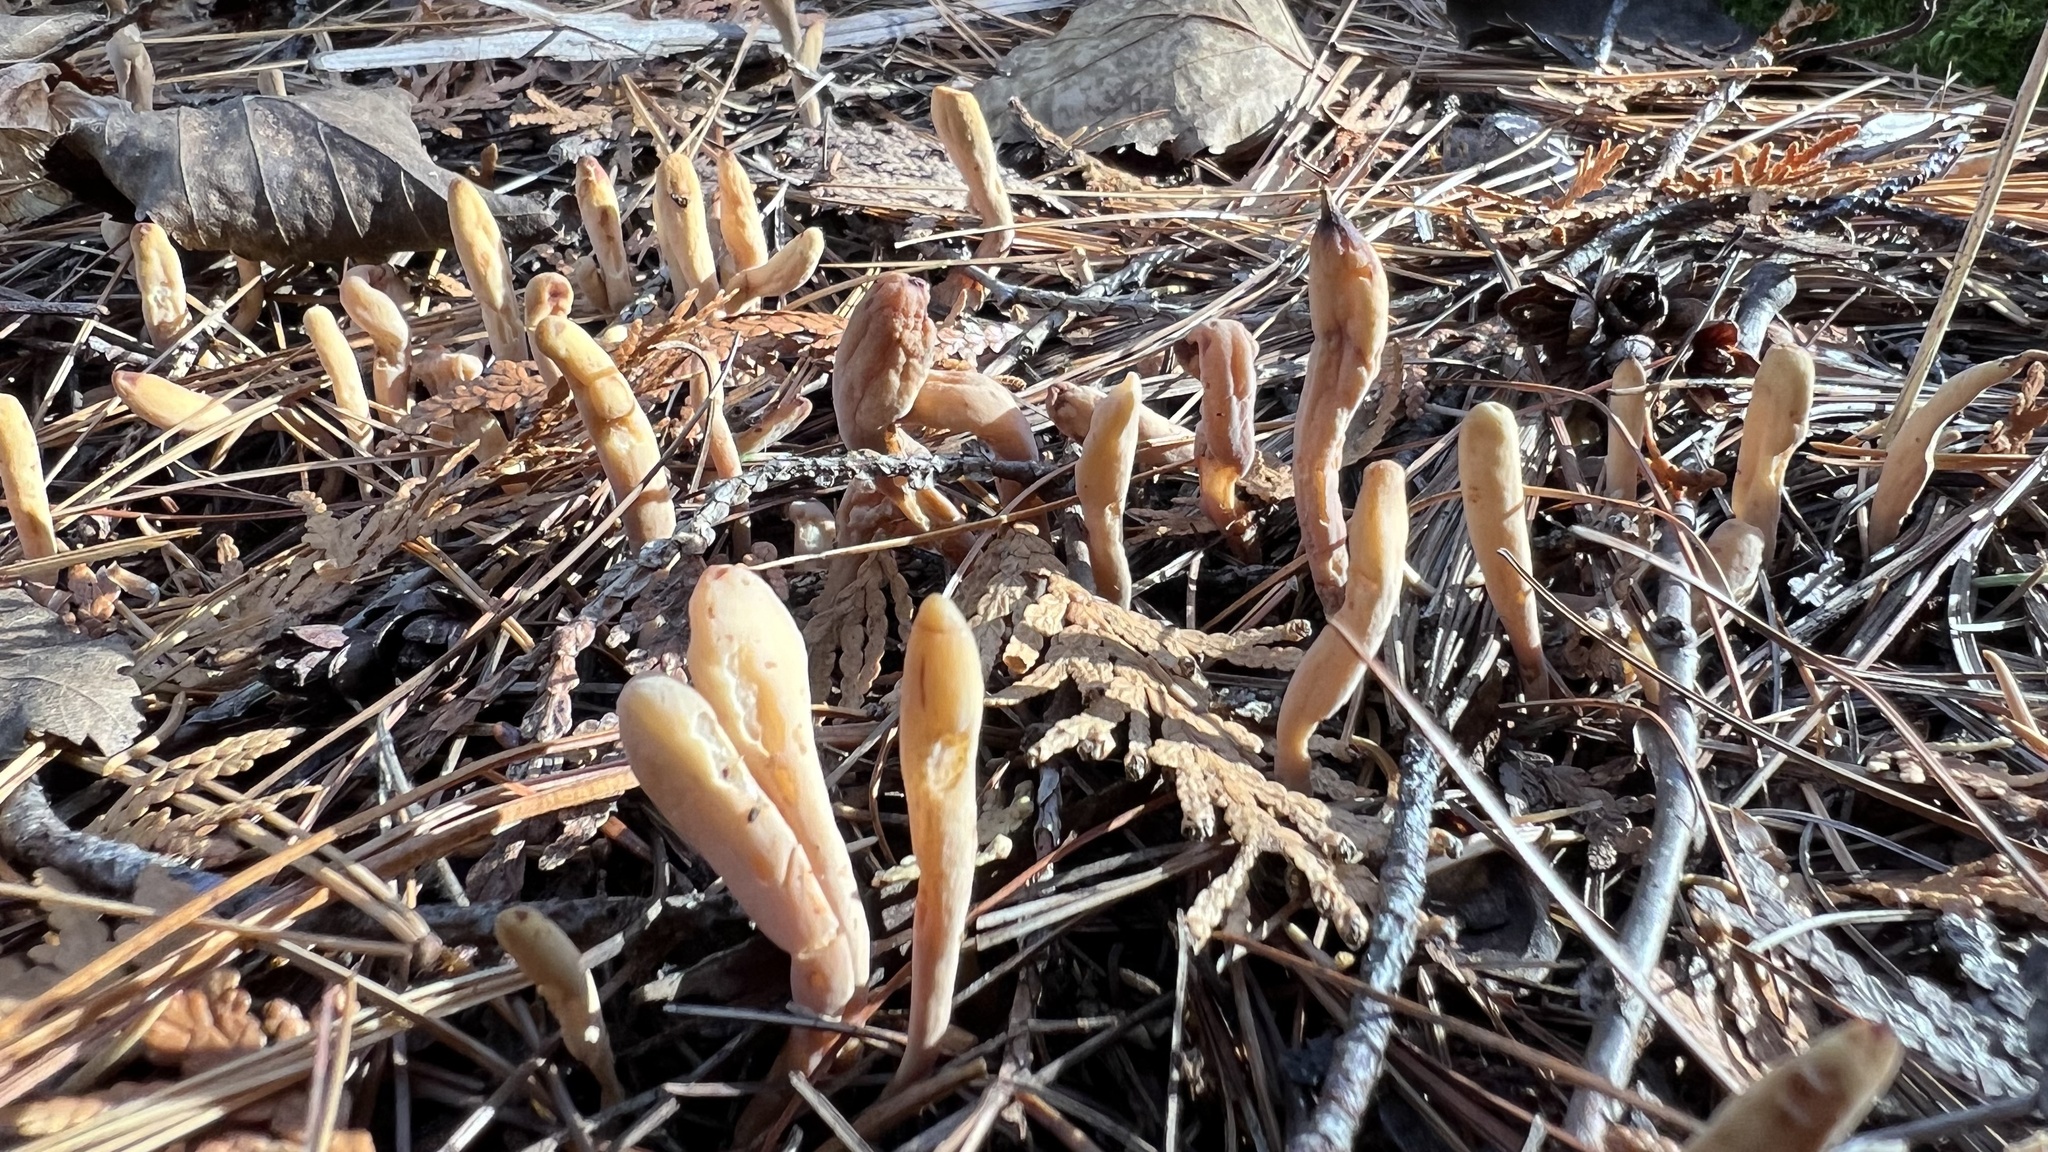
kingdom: Fungi
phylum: Basidiomycota
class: Agaricomycetes
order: Gomphales
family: Clavariadelphaceae
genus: Clavariadelphus
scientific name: Clavariadelphus ligula
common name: Ochre club
